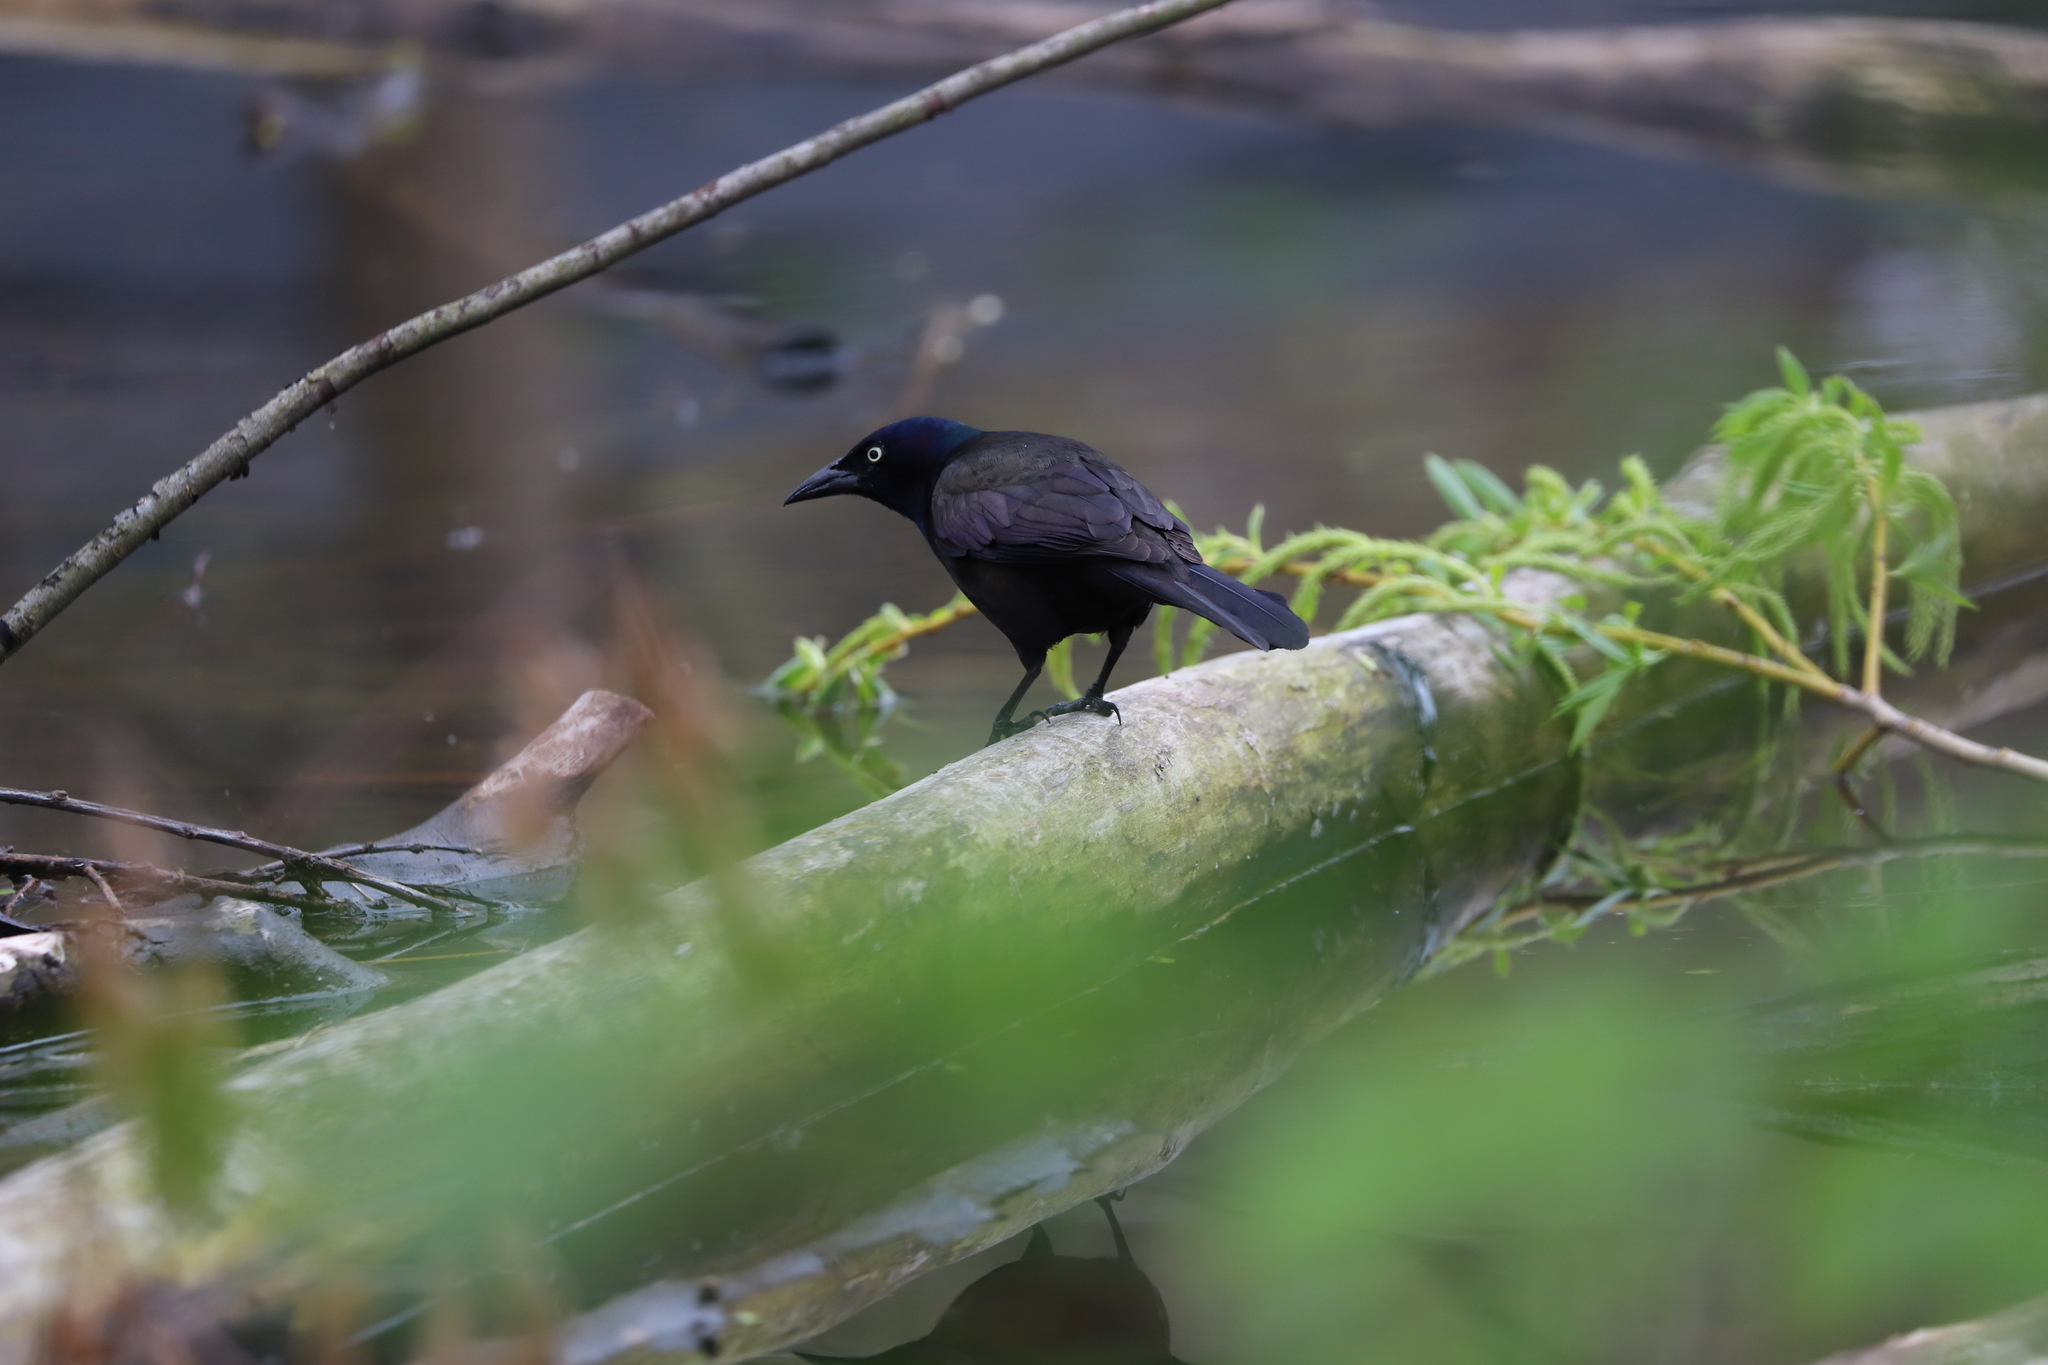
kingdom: Animalia
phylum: Chordata
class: Aves
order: Passeriformes
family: Icteridae
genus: Quiscalus
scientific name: Quiscalus quiscula
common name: Common grackle
